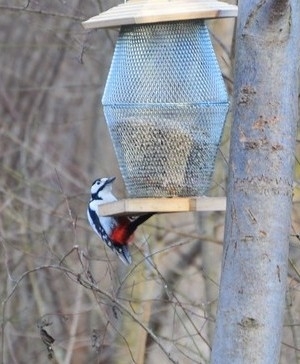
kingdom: Animalia
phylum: Chordata
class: Aves
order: Piciformes
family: Picidae
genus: Dendrocopos
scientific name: Dendrocopos major
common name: Great spotted woodpecker
